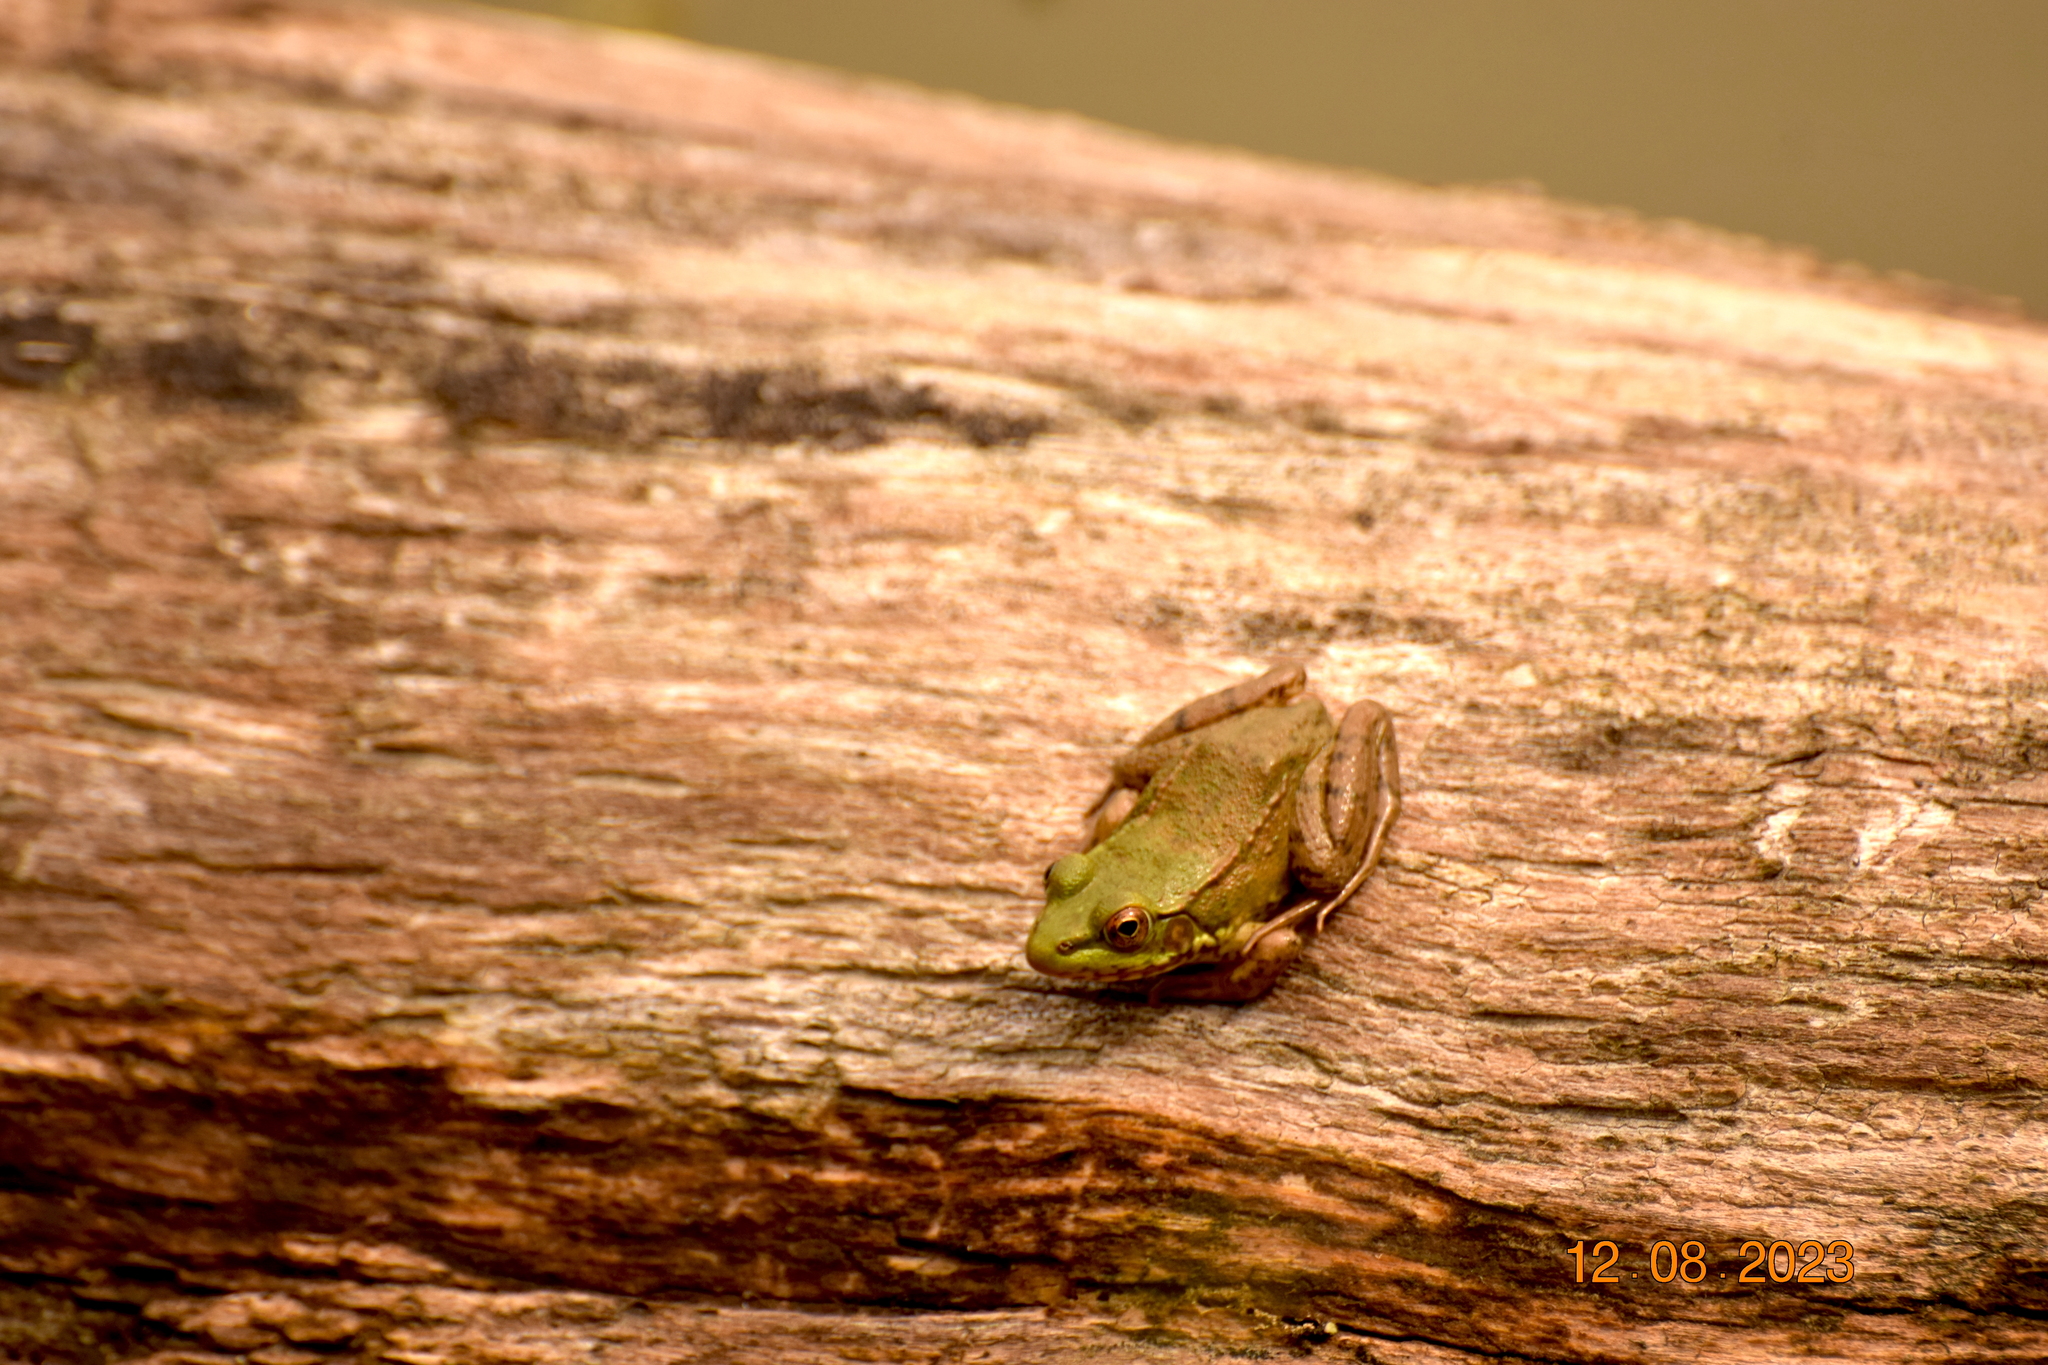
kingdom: Animalia
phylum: Chordata
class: Amphibia
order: Anura
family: Ranidae
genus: Lithobates
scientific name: Lithobates clamitans
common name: Green frog
